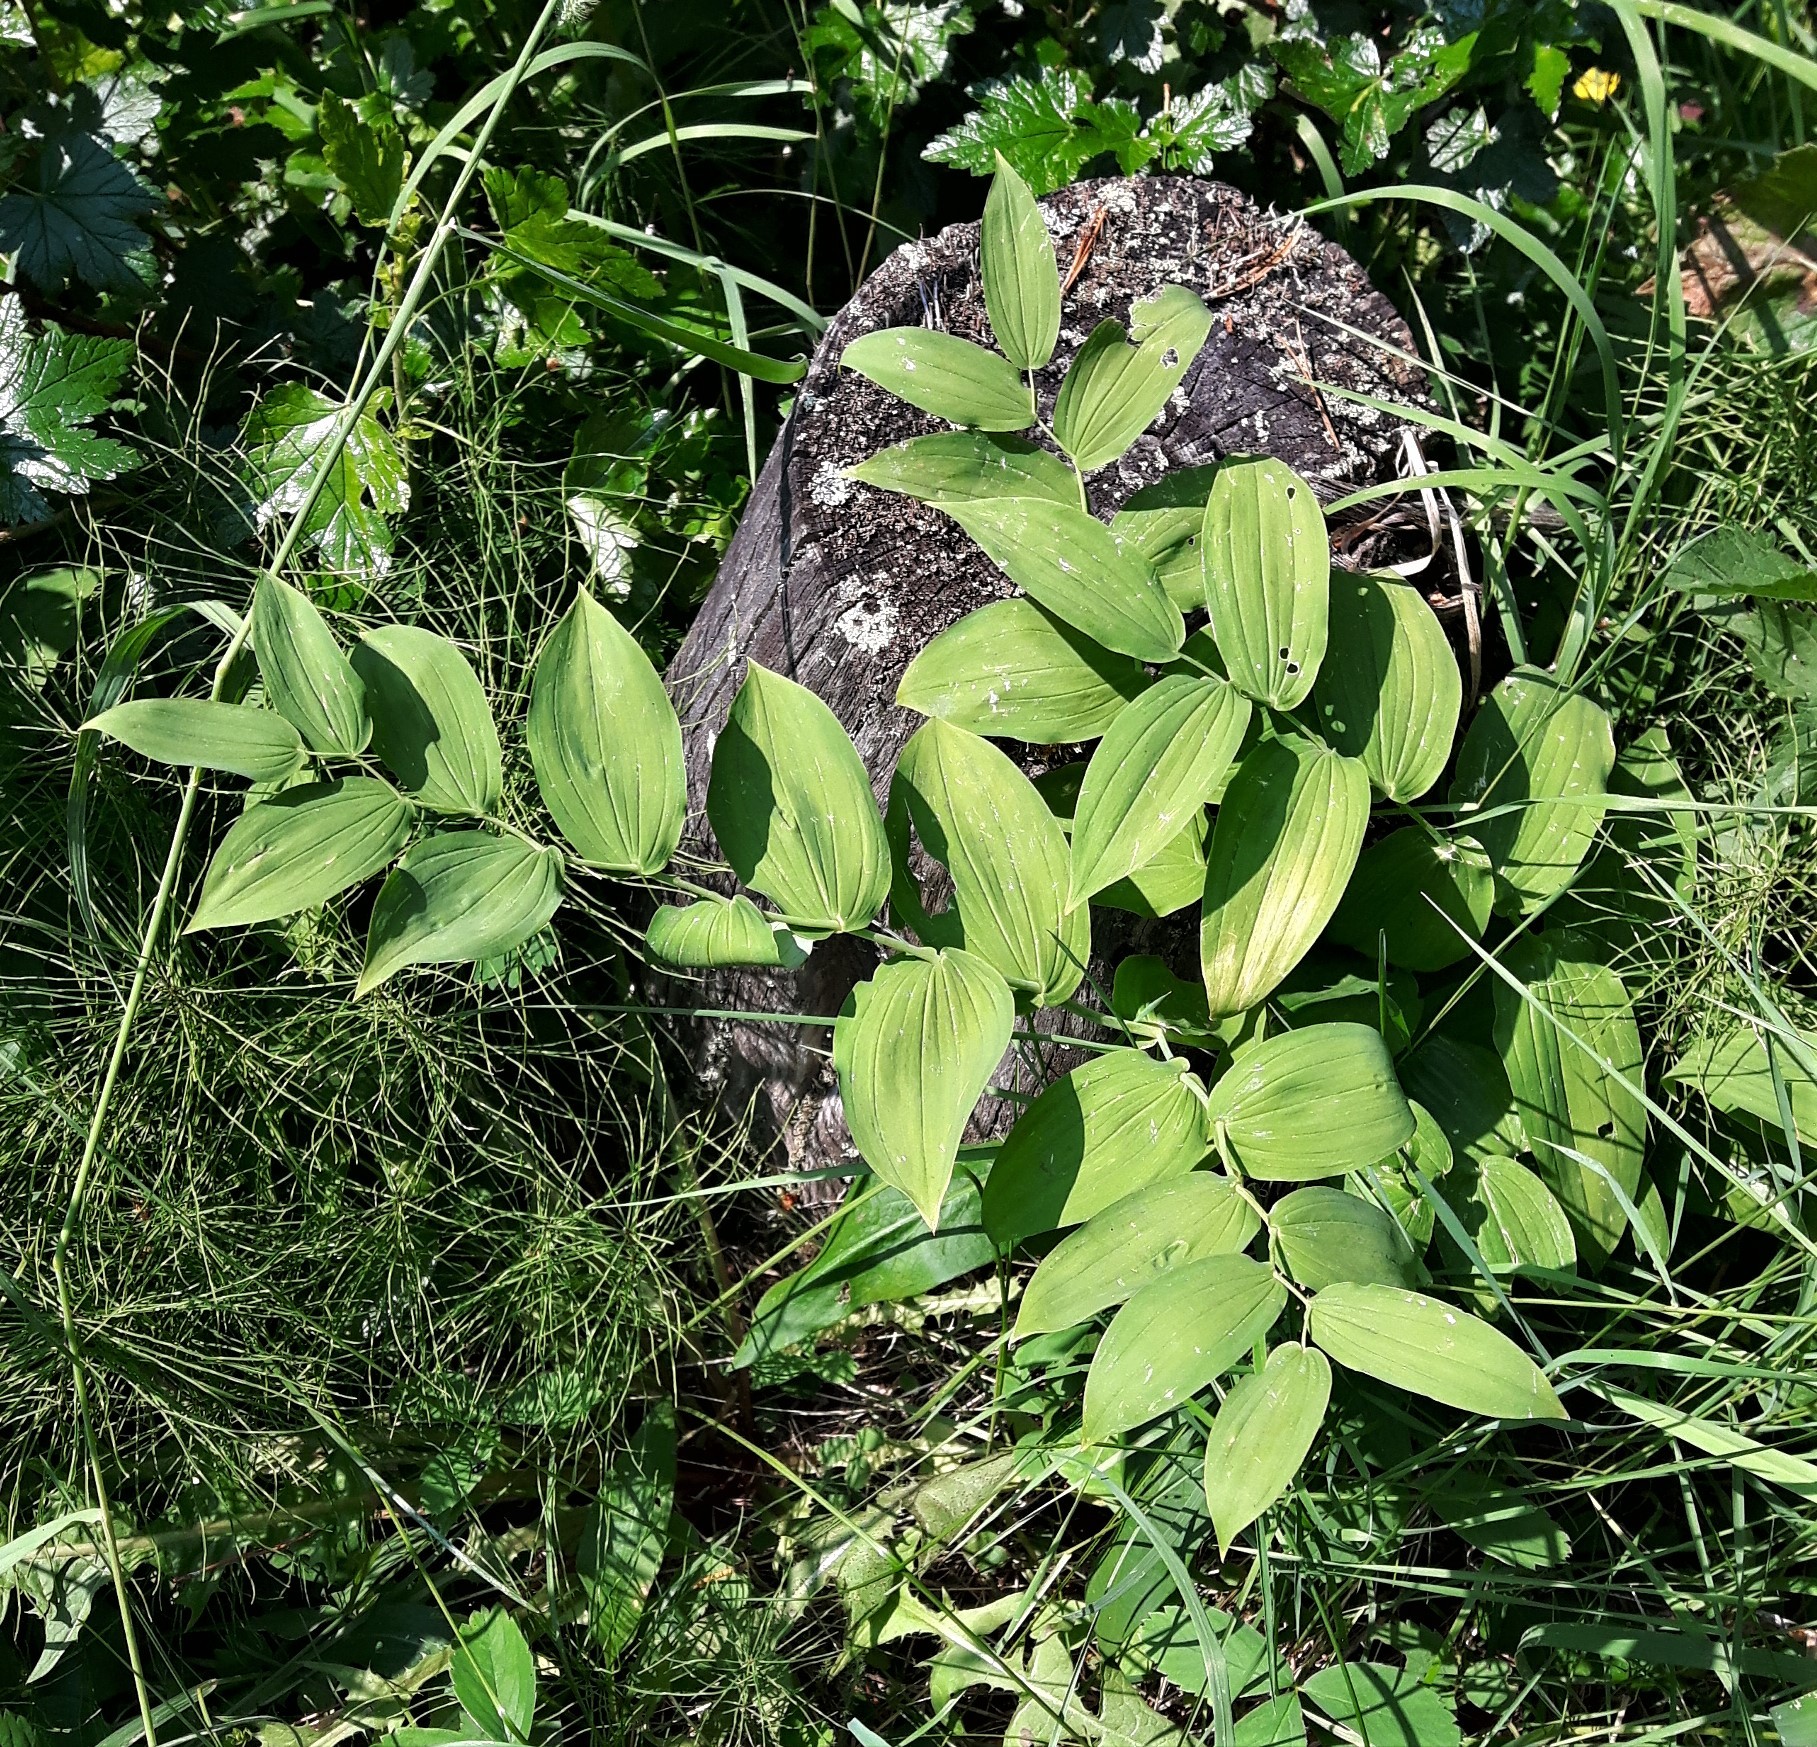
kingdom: Plantae
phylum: Tracheophyta
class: Liliopsida
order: Liliales
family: Liliaceae
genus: Streptopus
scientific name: Streptopus amplexifolius
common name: Clasp twisted stalk
